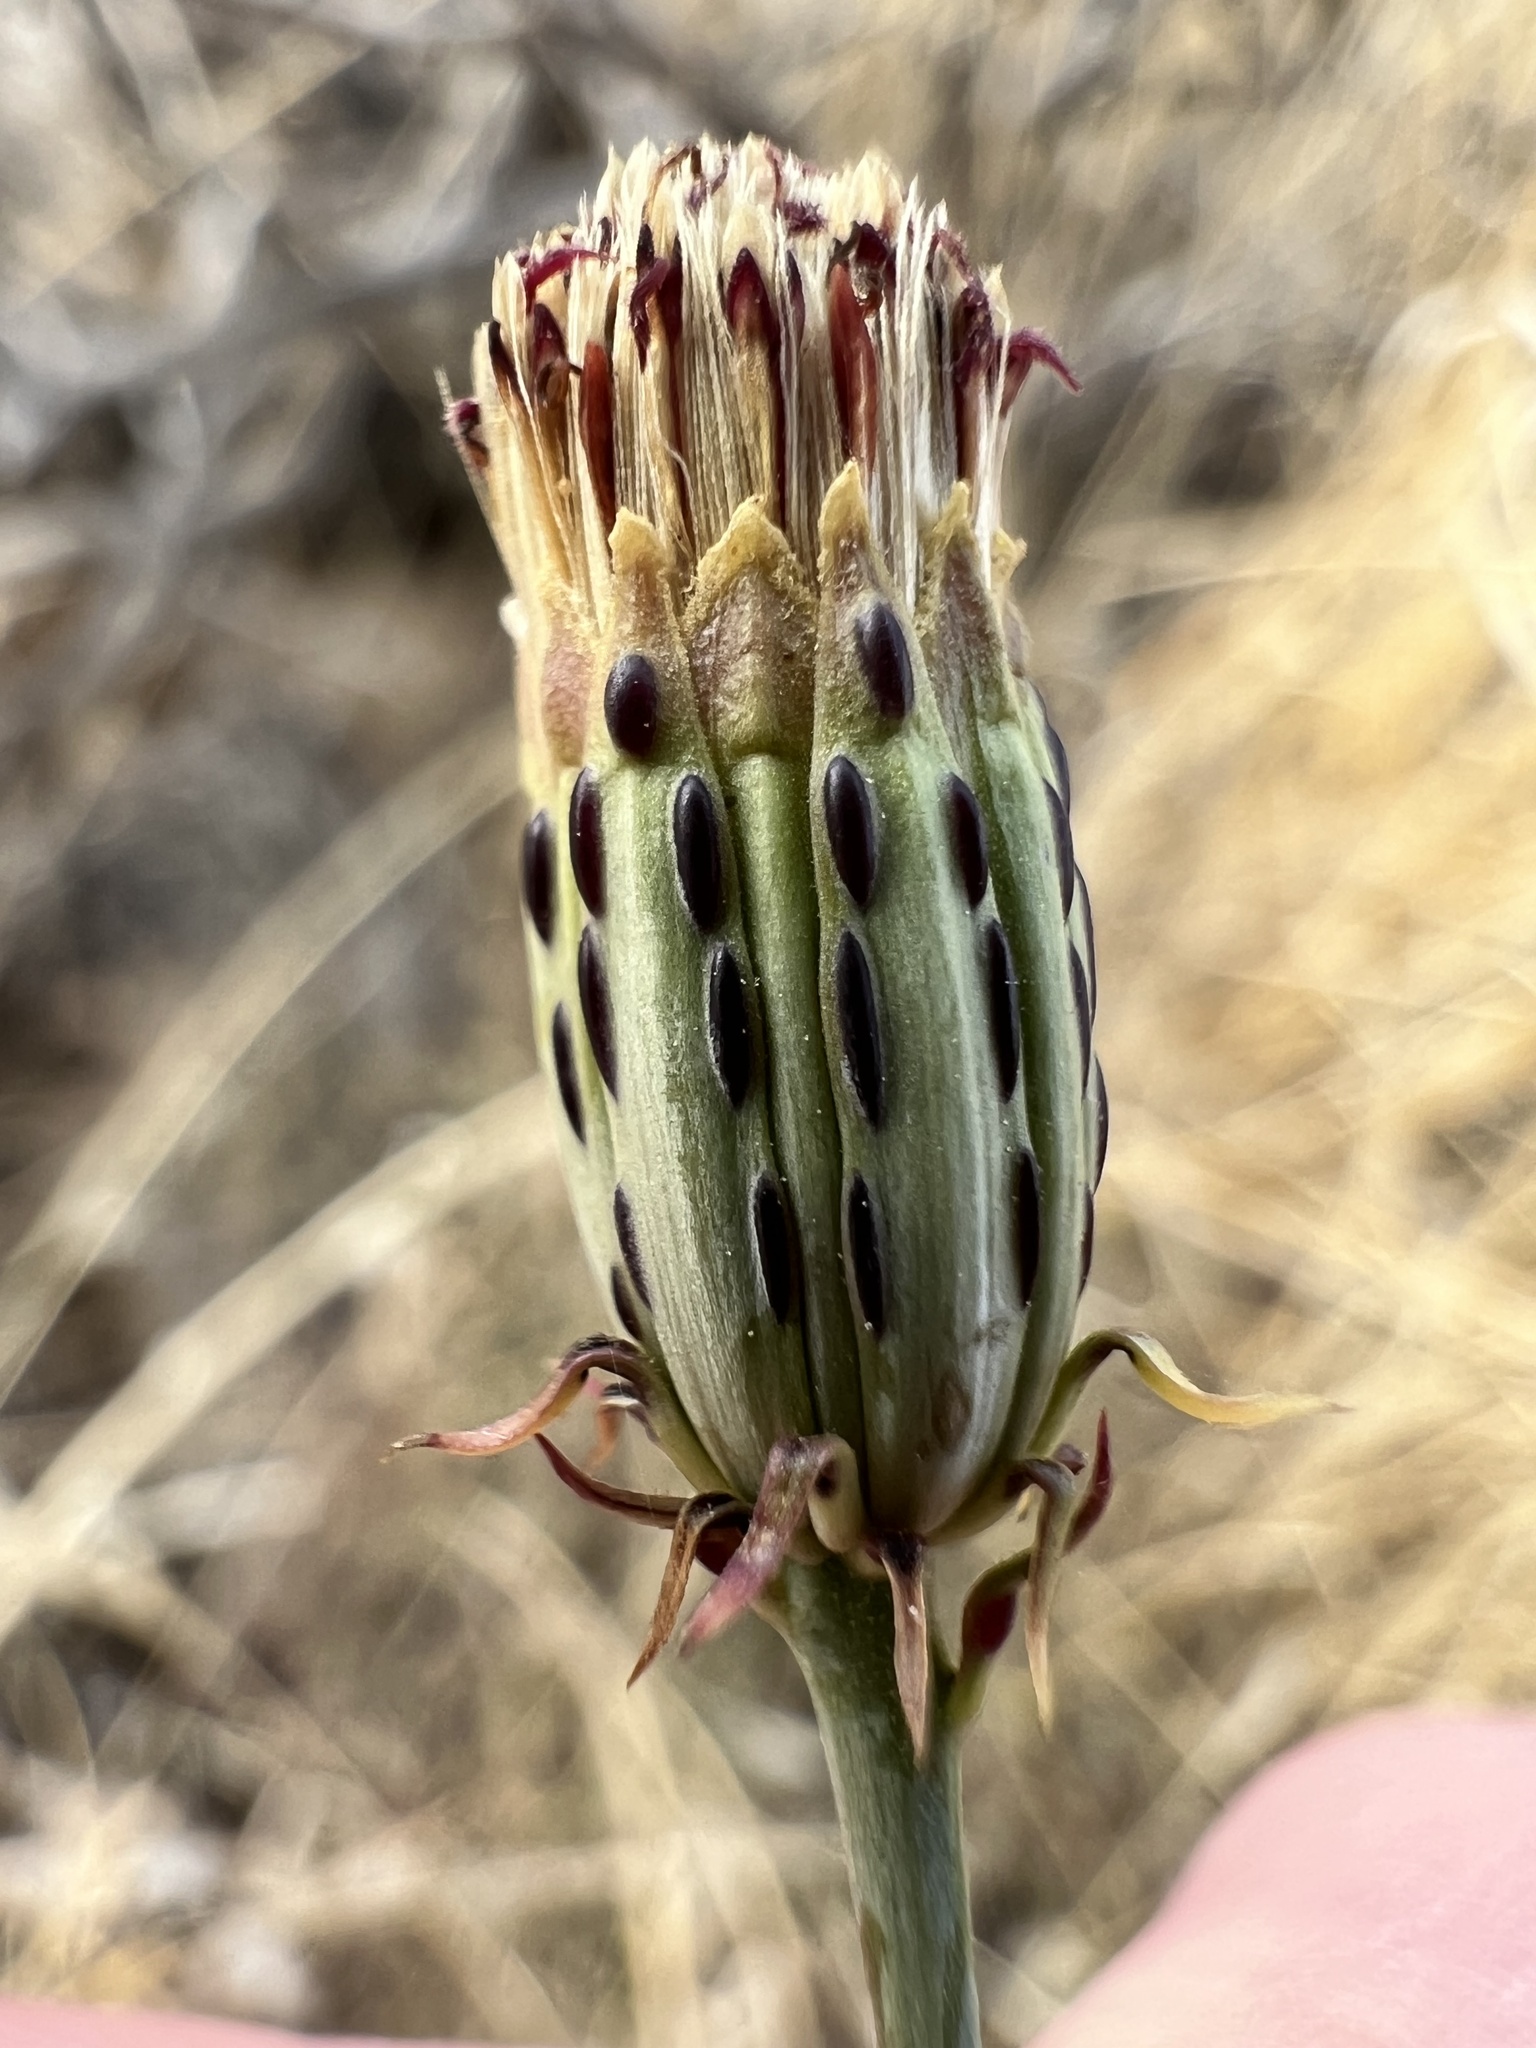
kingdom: Plantae
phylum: Tracheophyta
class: Magnoliopsida
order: Asterales
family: Asteraceae
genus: Adenophyllum
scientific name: Adenophyllum porophylloides
